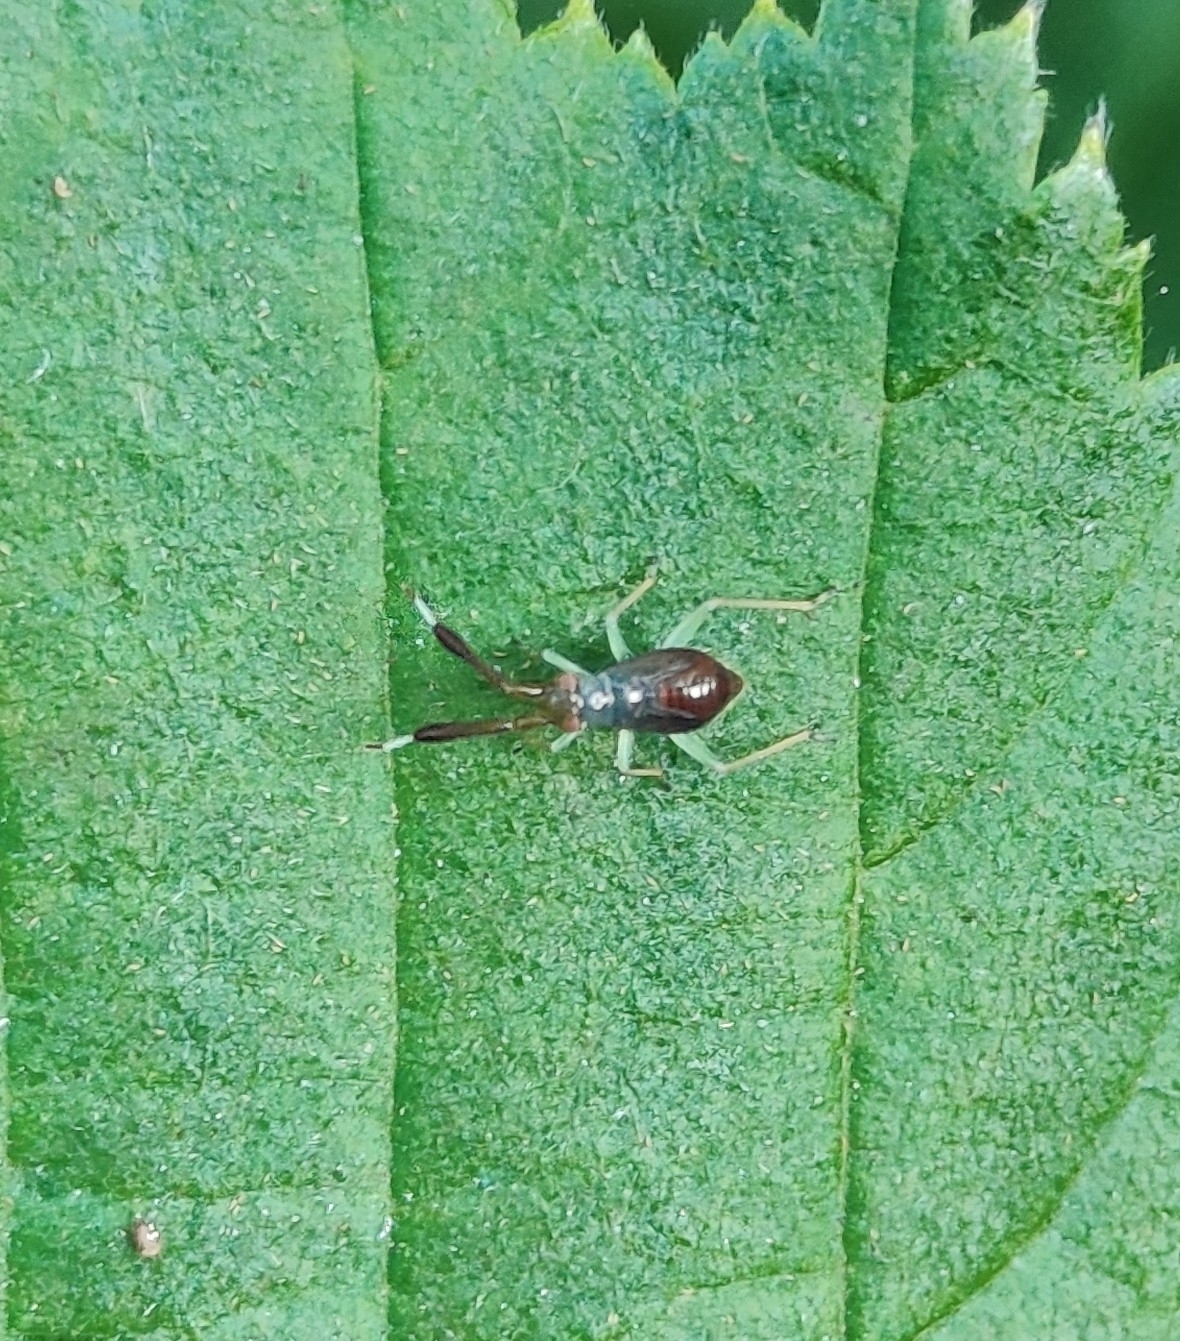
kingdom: Animalia
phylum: Arthropoda
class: Insecta
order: Hemiptera
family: Miridae
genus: Heterotoma
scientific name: Heterotoma planicornis
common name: Plant bug
